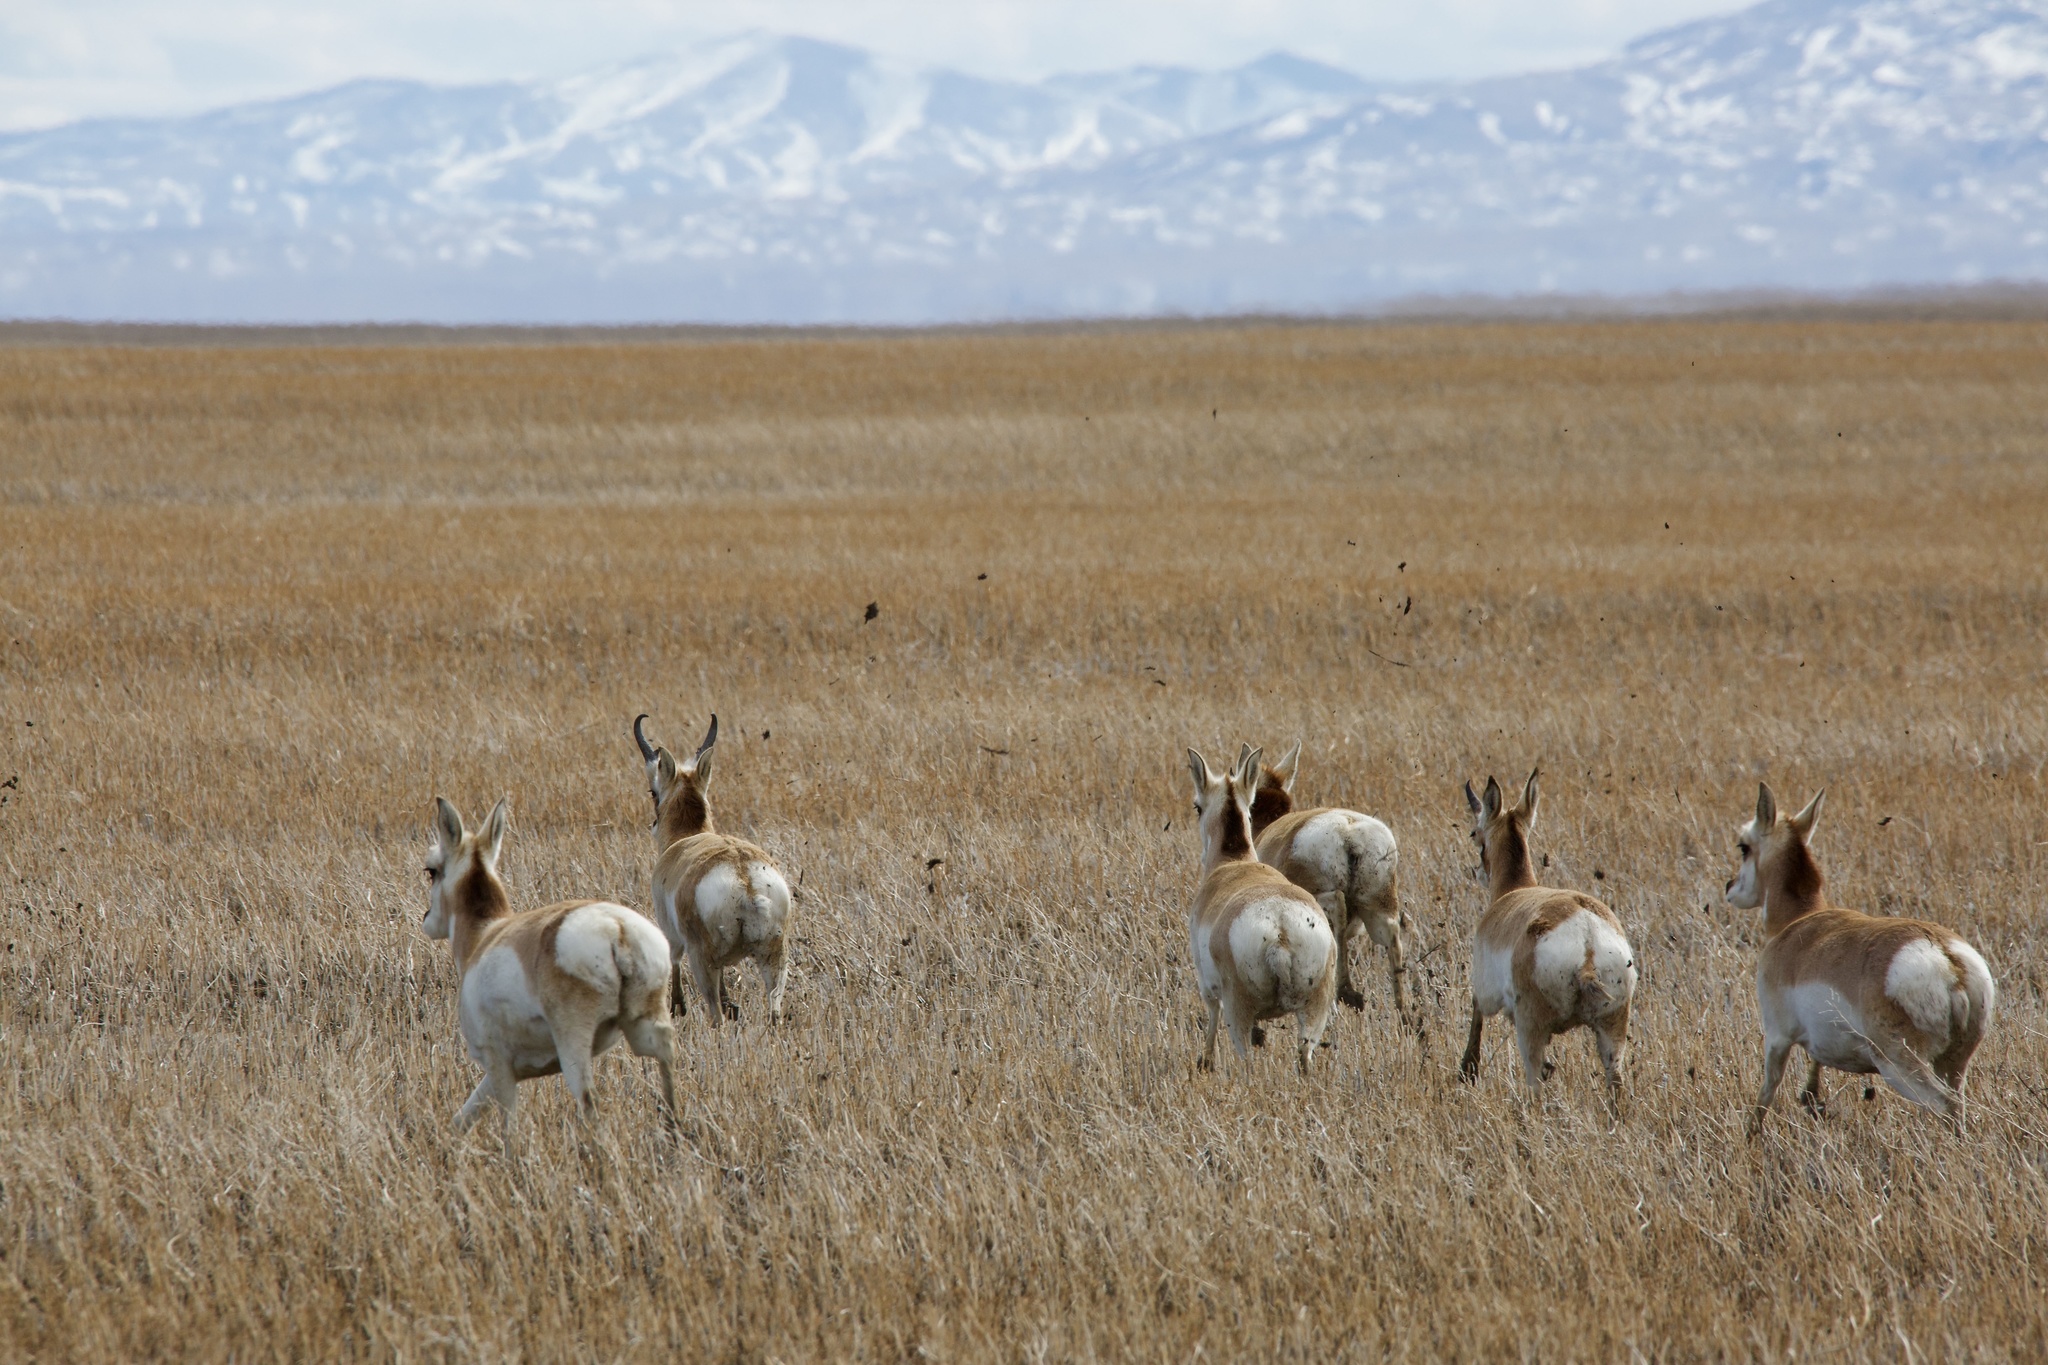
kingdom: Animalia
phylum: Chordata
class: Mammalia
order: Artiodactyla
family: Antilocapridae
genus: Antilocapra
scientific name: Antilocapra americana
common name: Pronghorn
